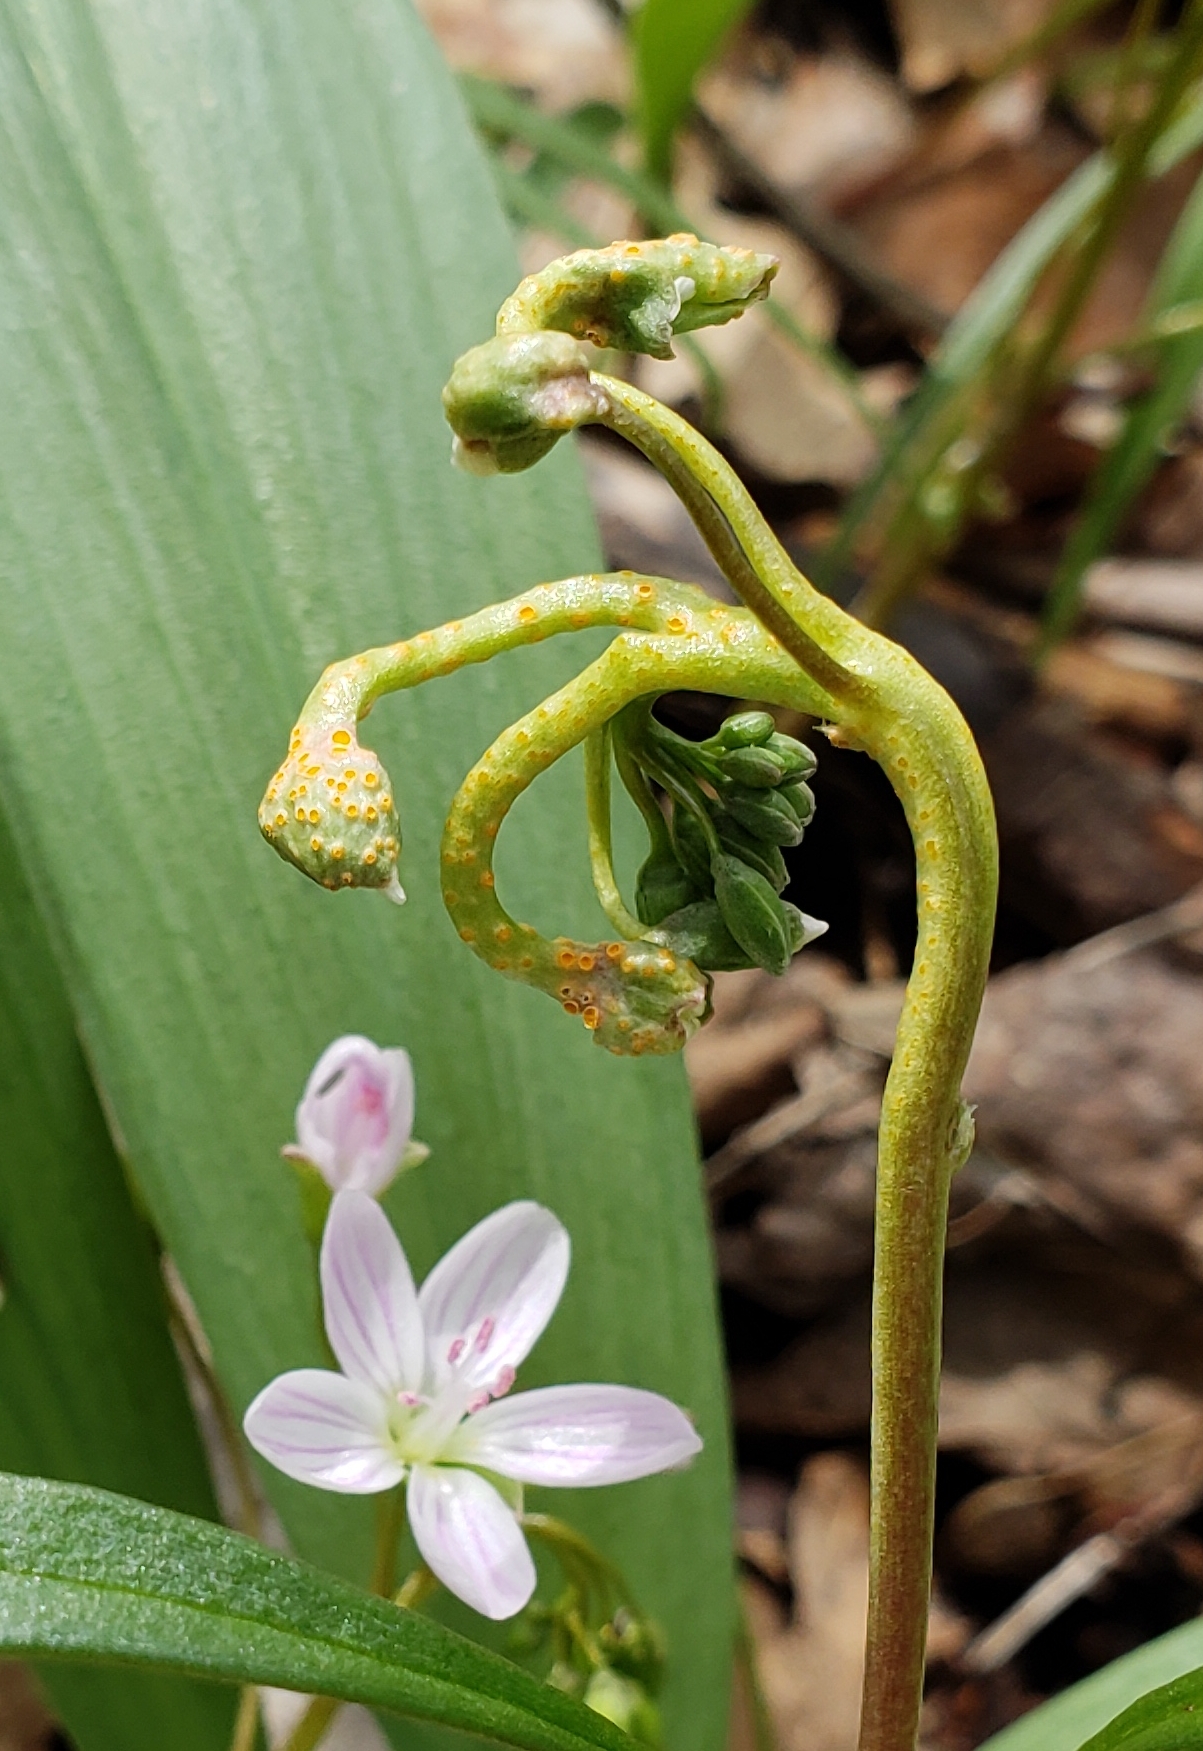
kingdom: Fungi
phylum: Basidiomycota
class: Pucciniomycetes
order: Pucciniales
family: Pucciniaceae
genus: Puccinia
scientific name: Puccinia mariae-wilsoniae
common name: Spring beauty rust
